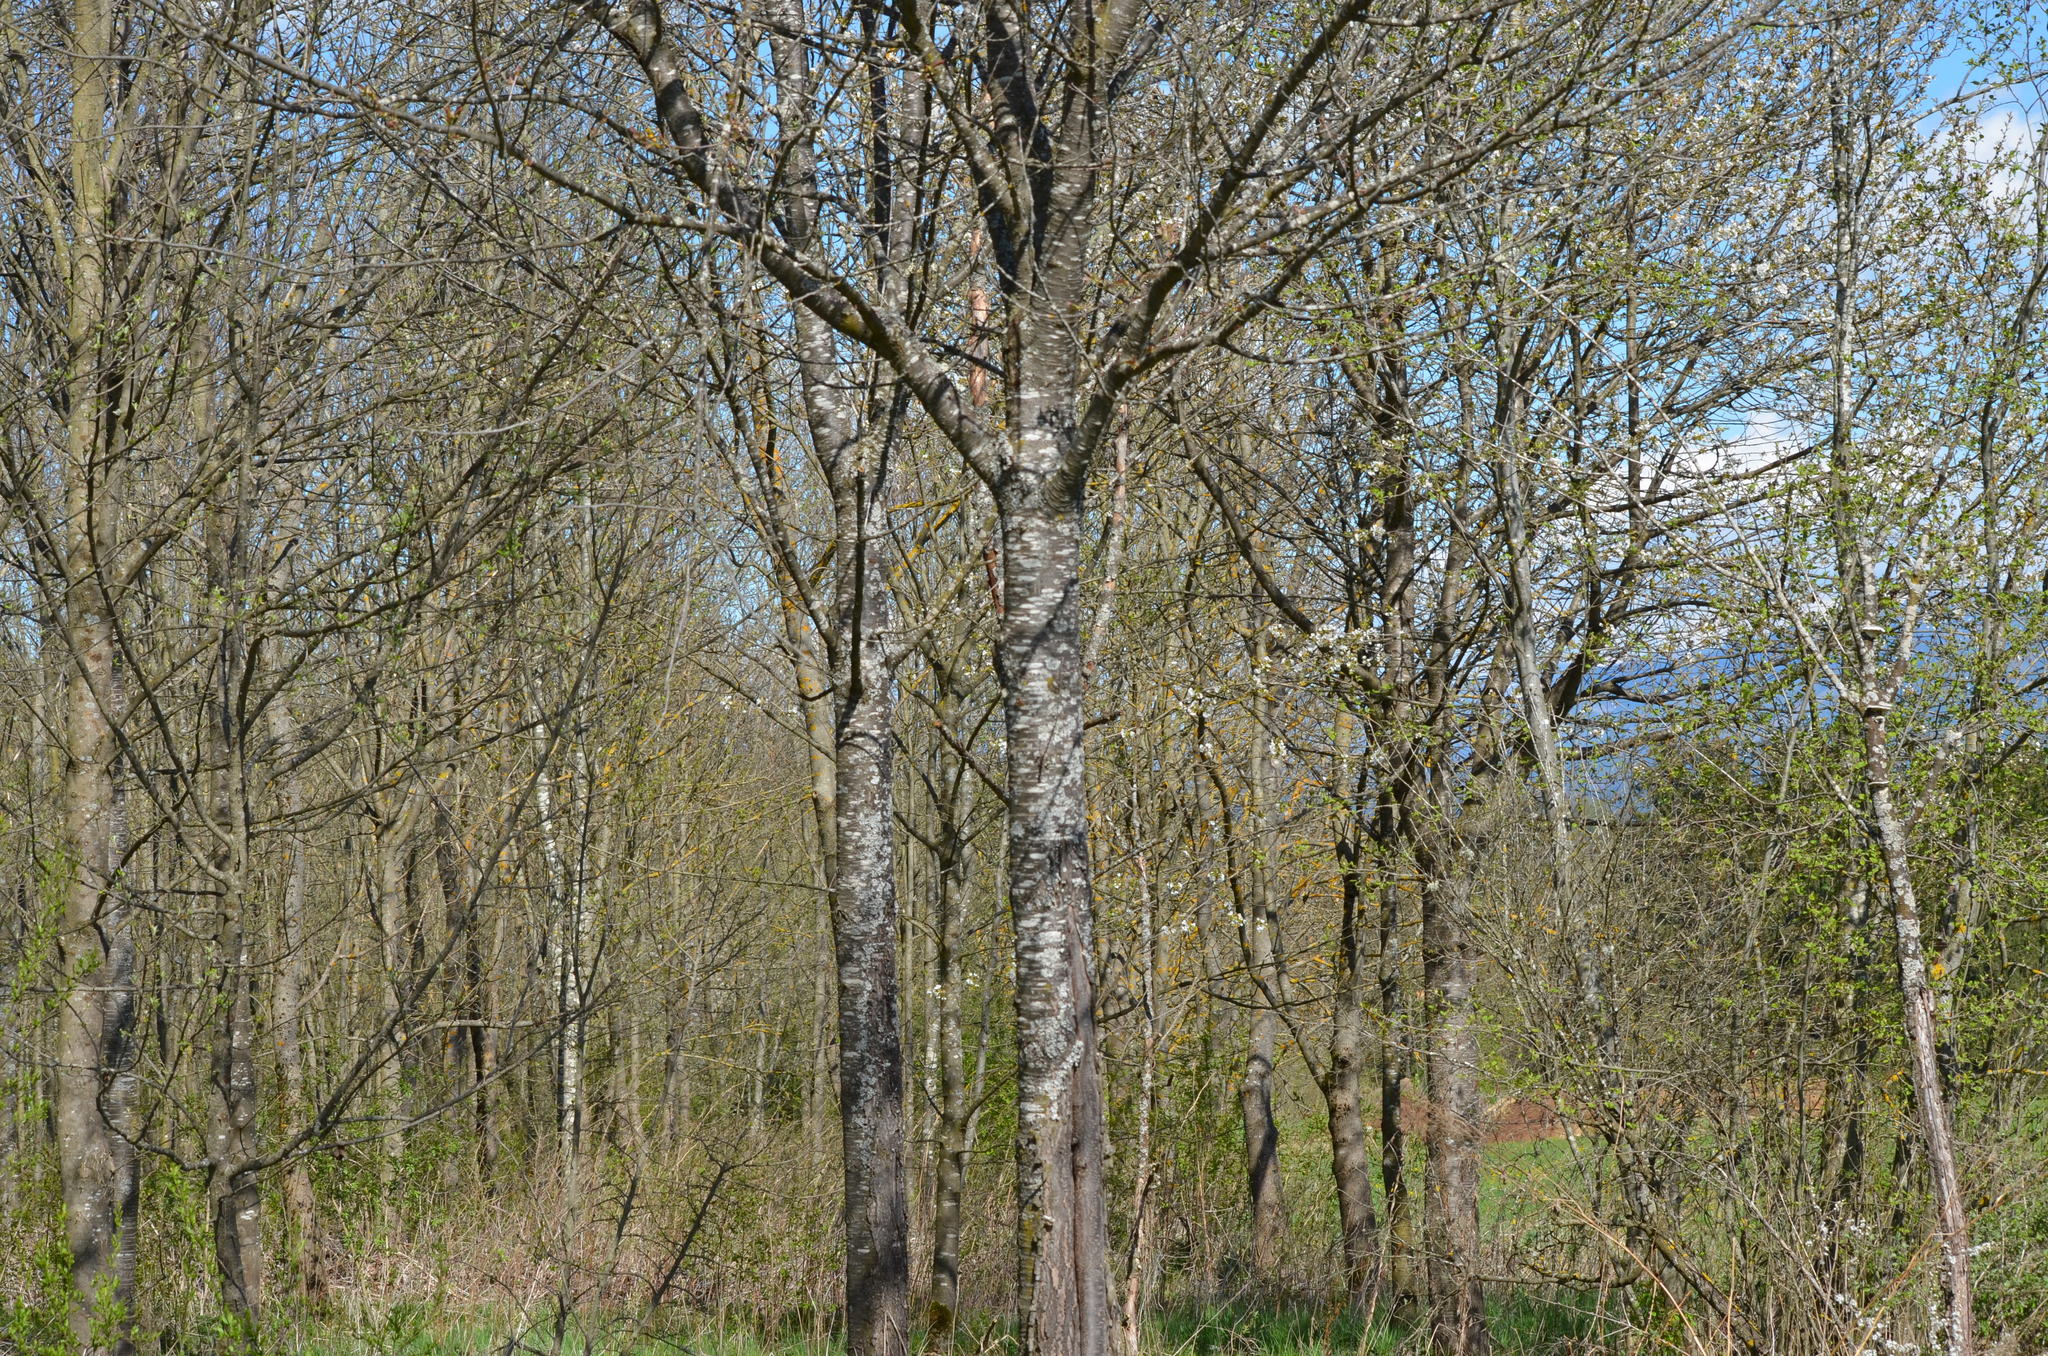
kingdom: Plantae
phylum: Tracheophyta
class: Magnoliopsida
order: Rosales
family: Rosaceae
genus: Prunus
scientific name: Prunus avium
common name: Sweet cherry
